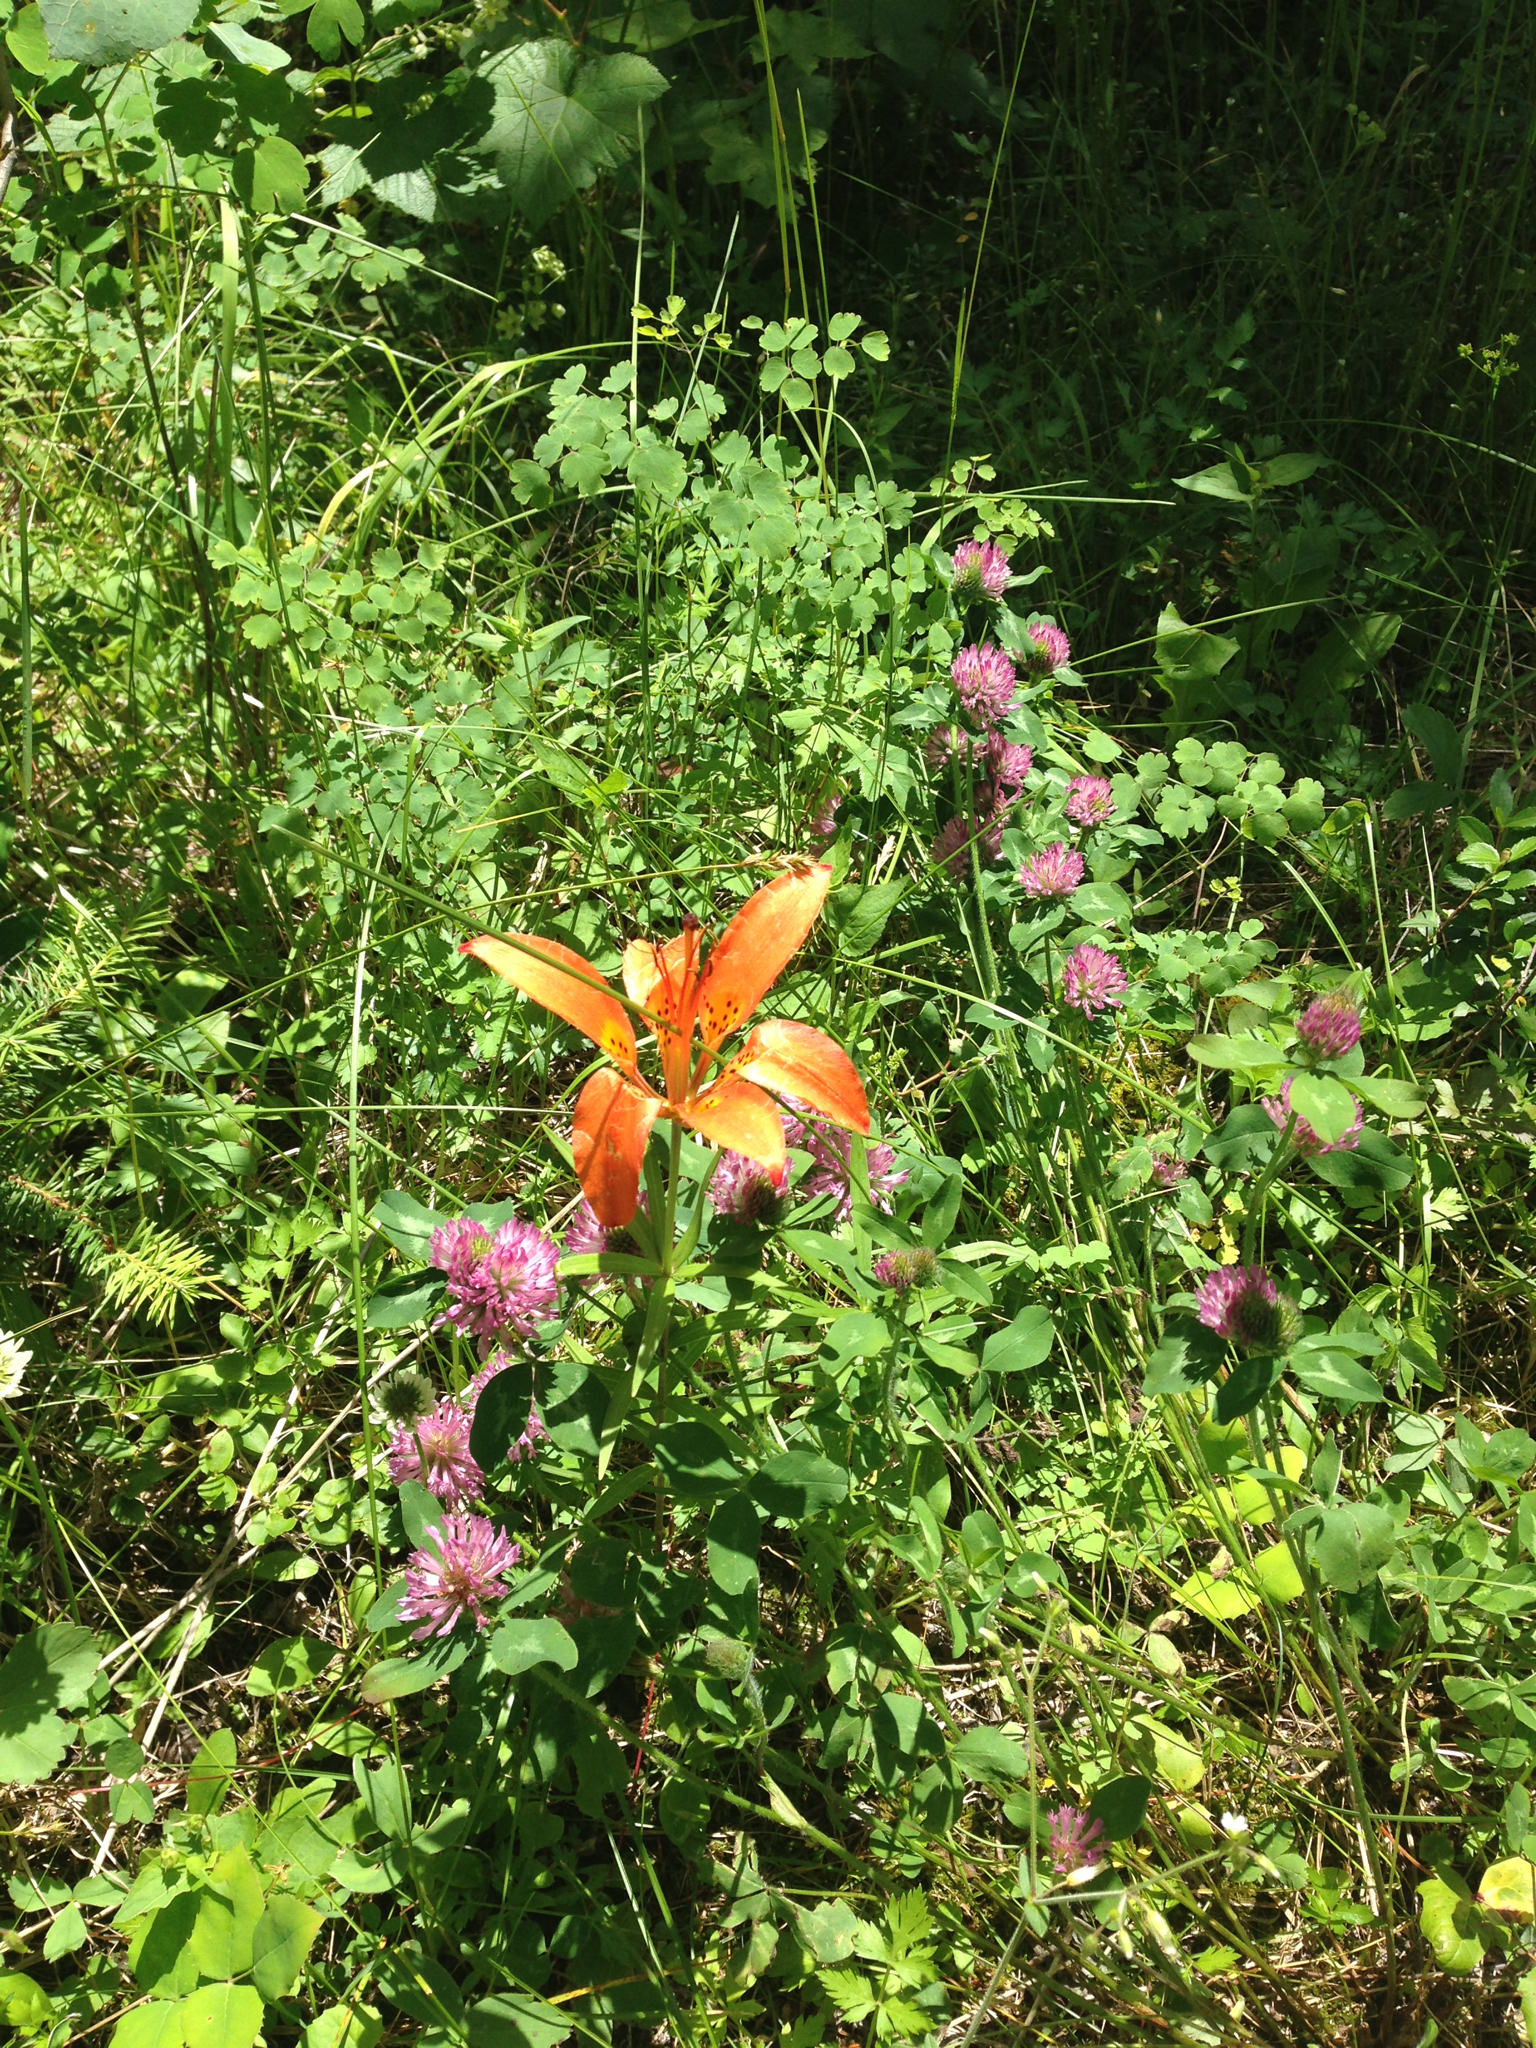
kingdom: Plantae
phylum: Tracheophyta
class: Liliopsida
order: Liliales
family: Liliaceae
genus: Lilium
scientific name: Lilium philadelphicum
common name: Red lily
